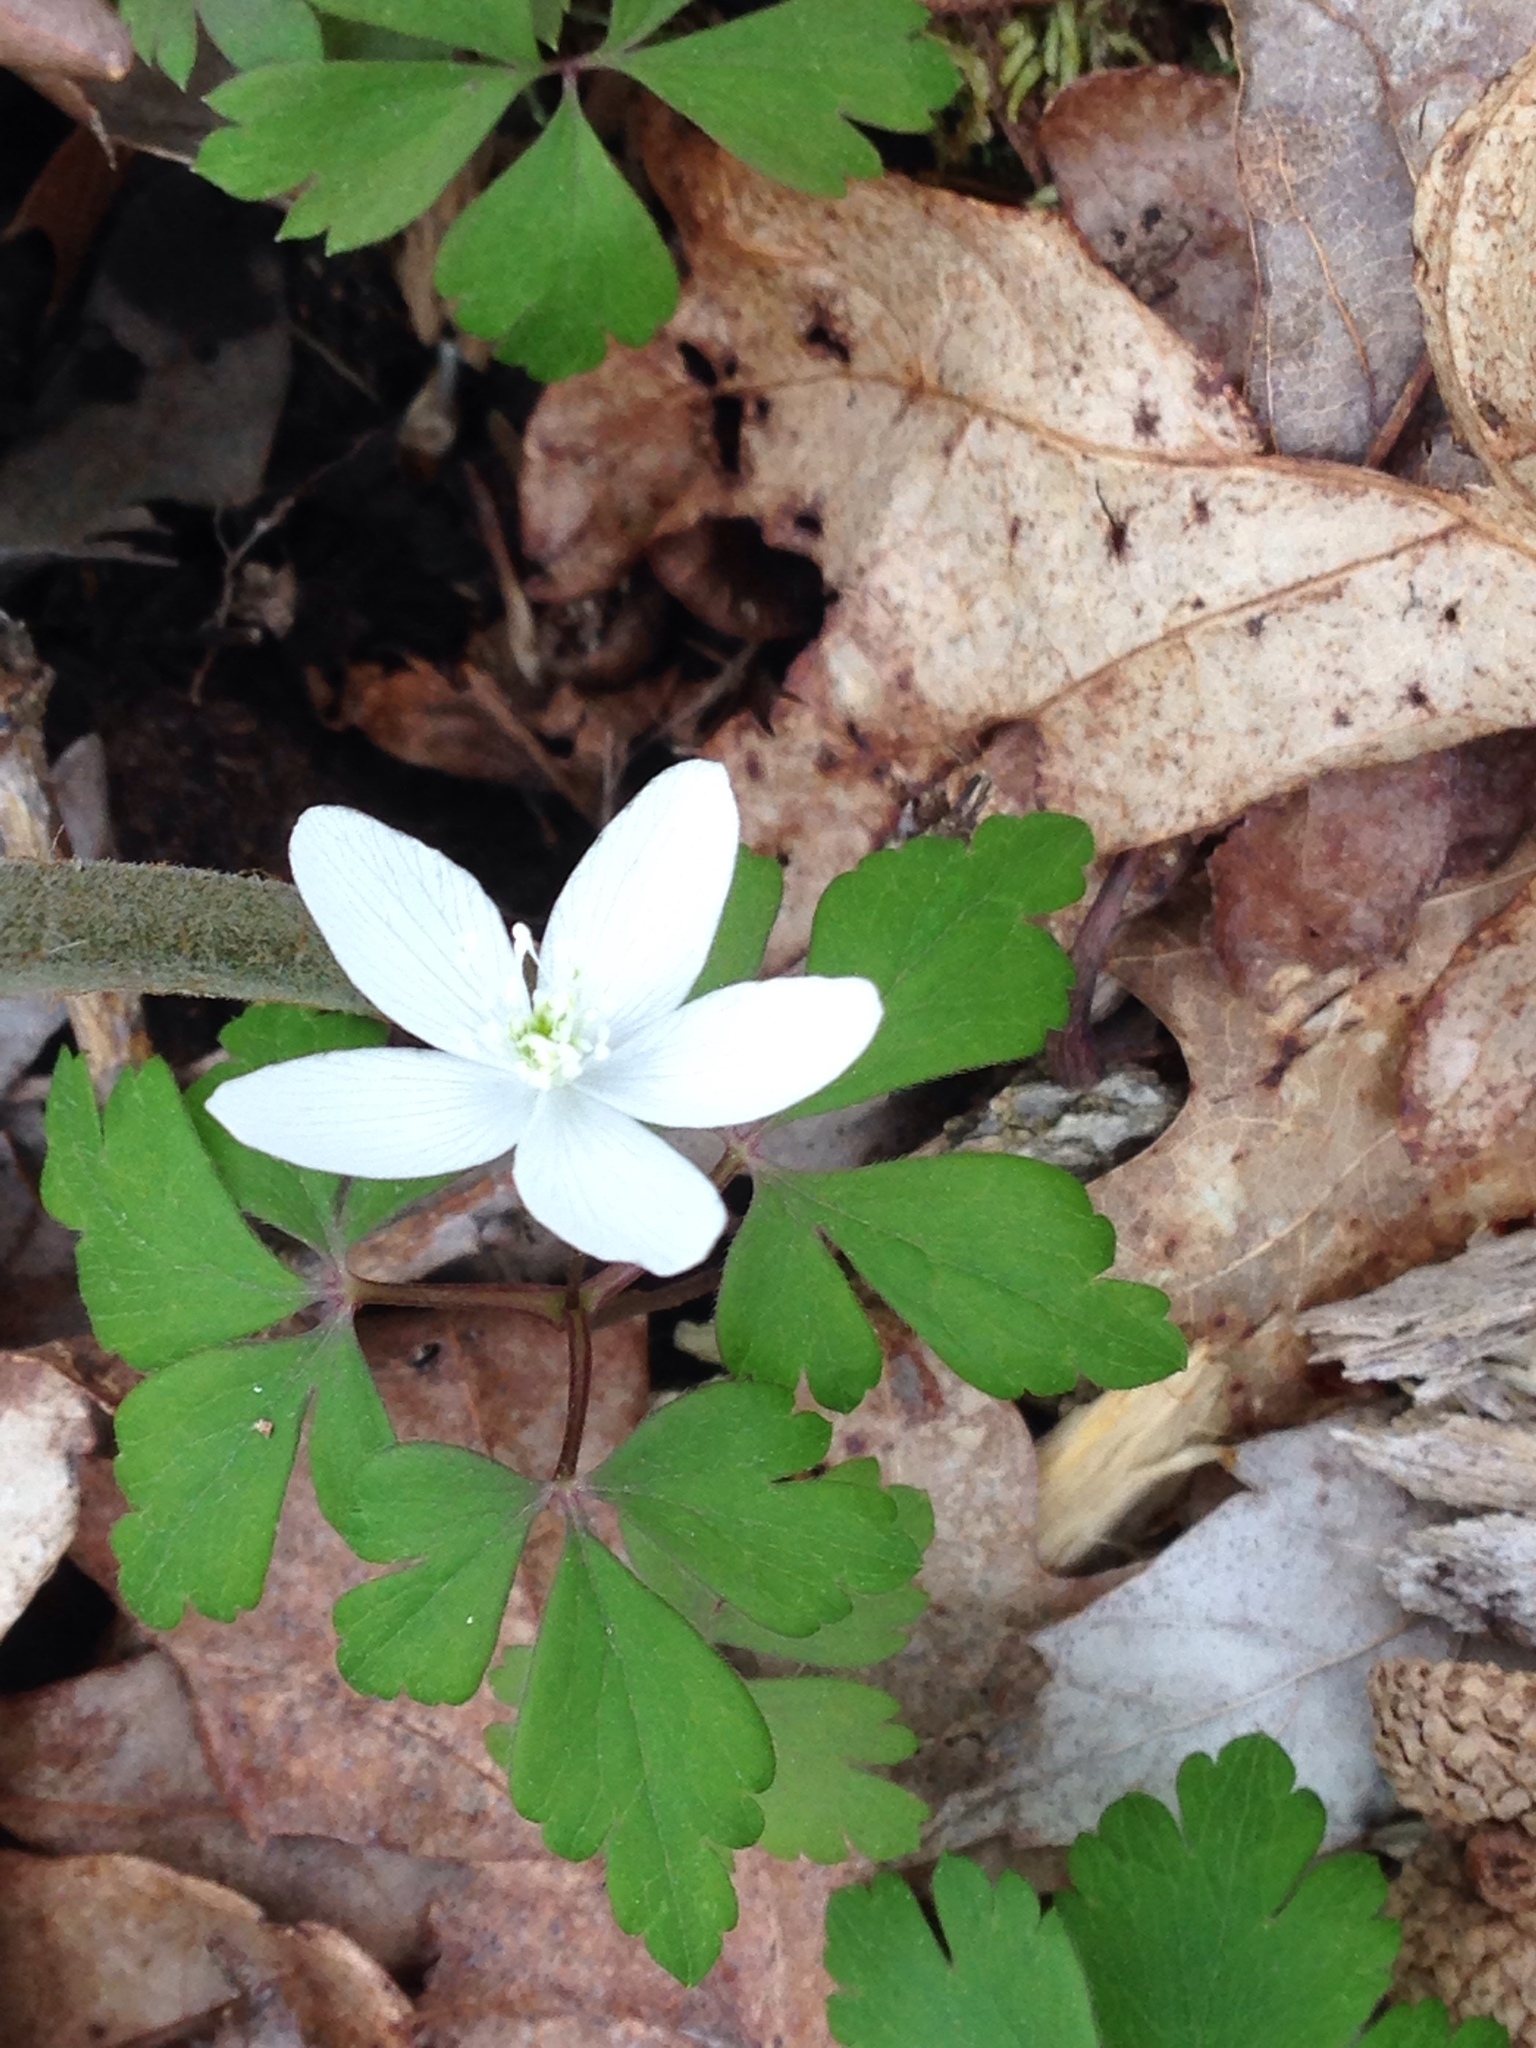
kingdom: Plantae
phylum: Tracheophyta
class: Magnoliopsida
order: Ranunculales
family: Ranunculaceae
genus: Anemone
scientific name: Anemone quinquefolia
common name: Wood anemone
